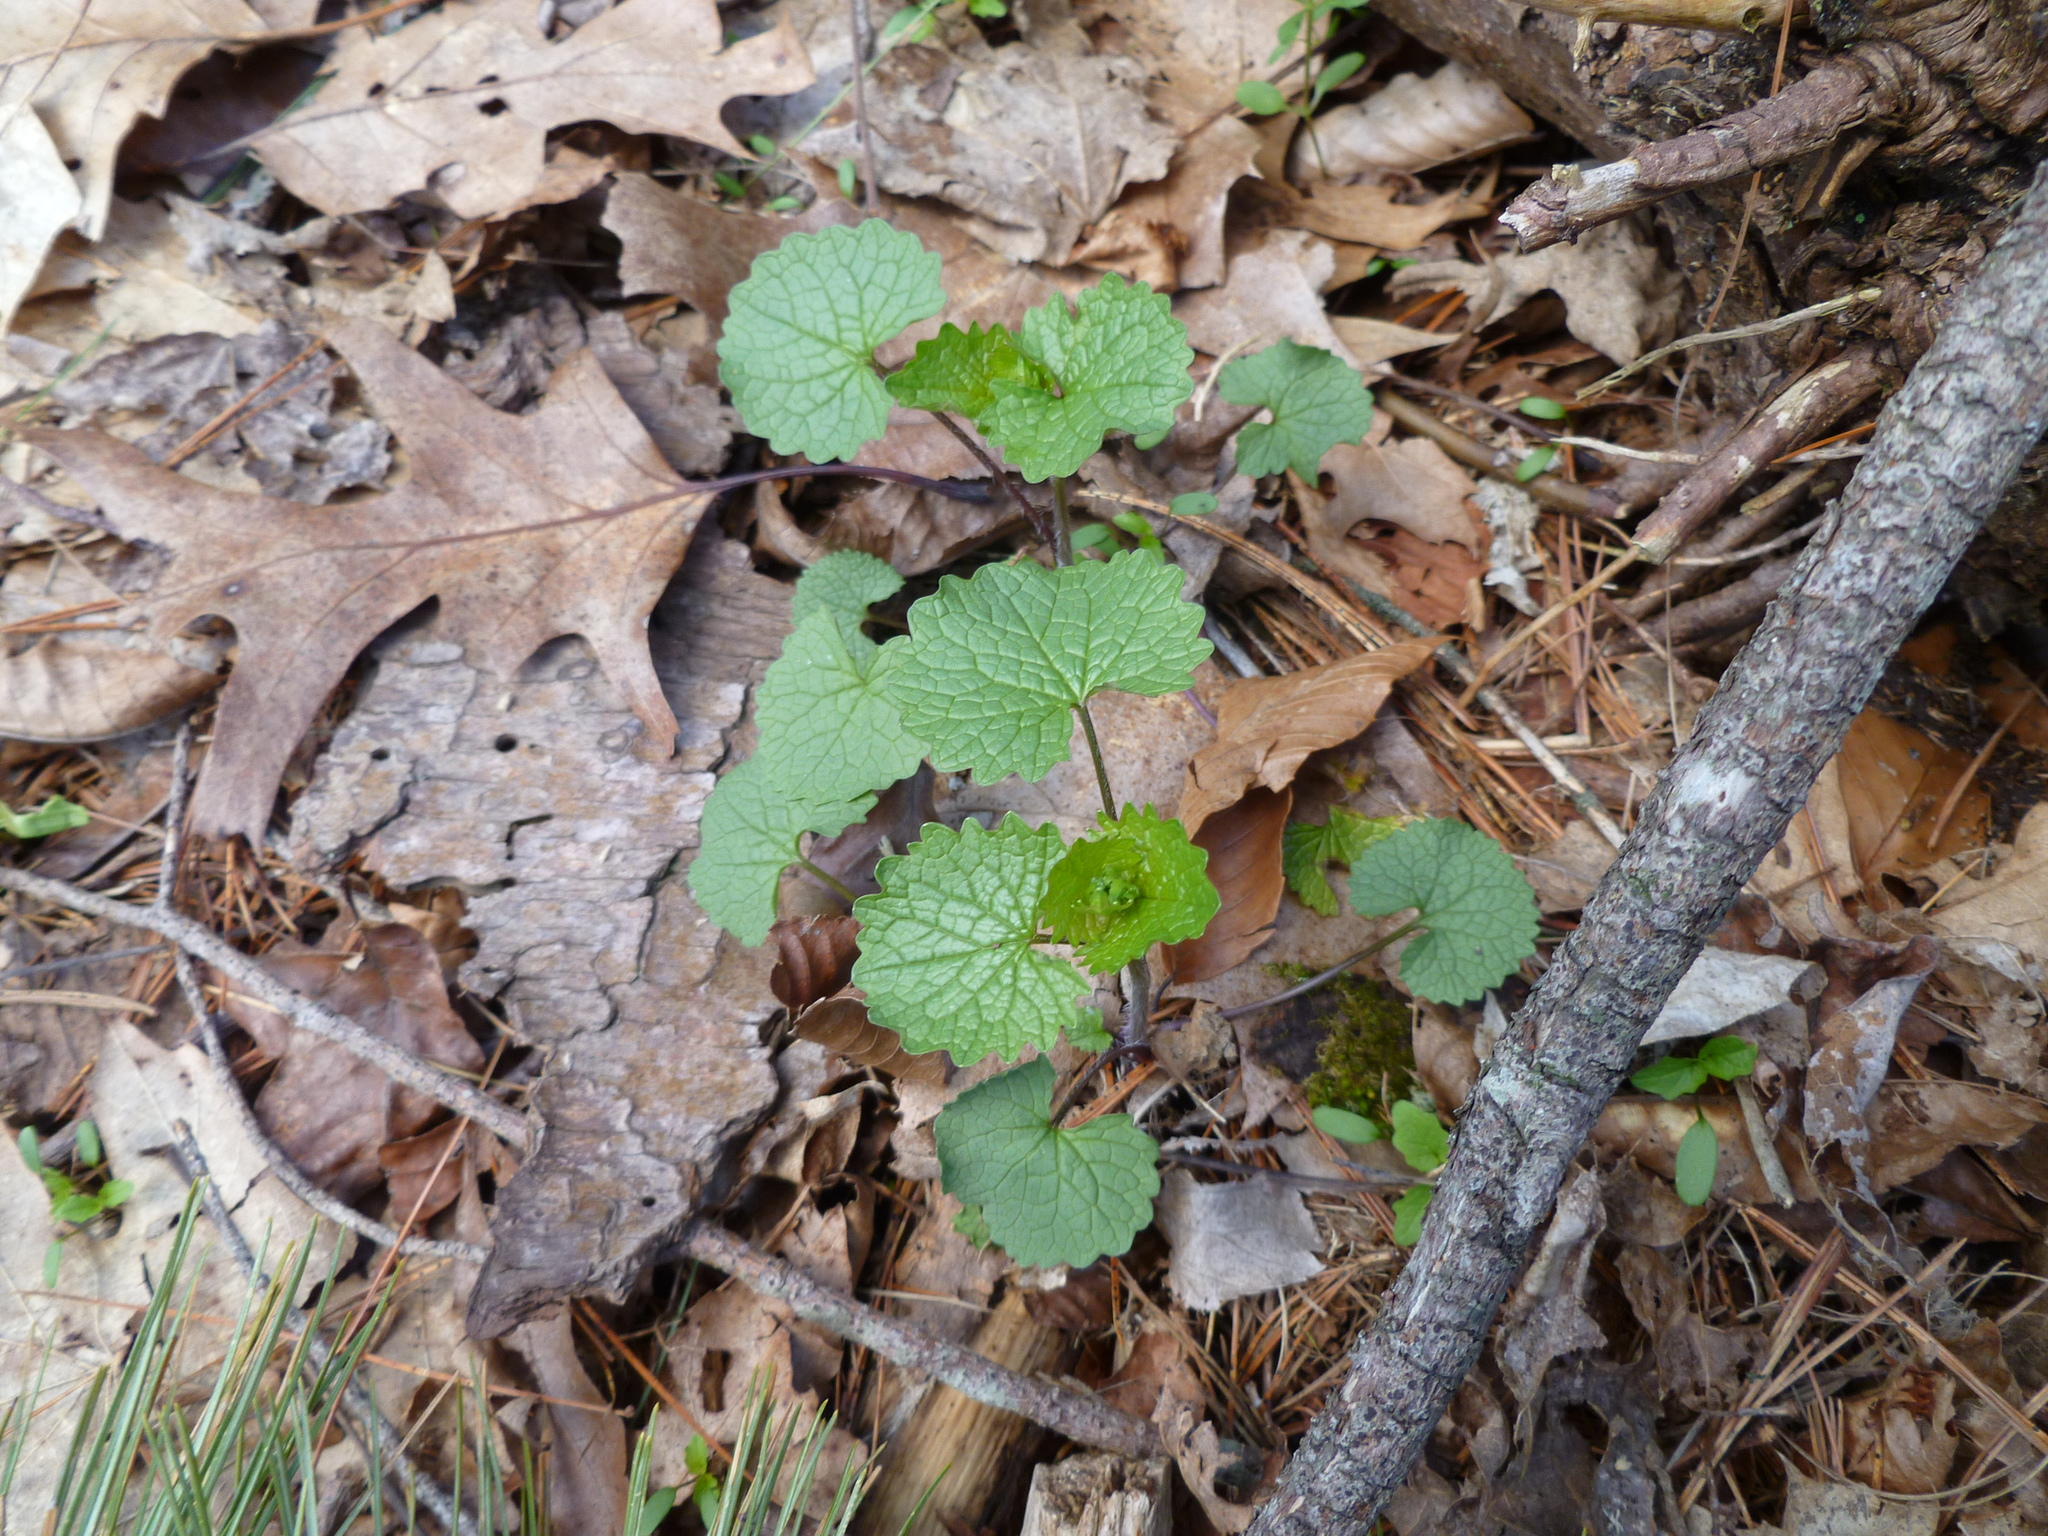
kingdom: Plantae
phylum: Tracheophyta
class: Magnoliopsida
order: Brassicales
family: Brassicaceae
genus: Alliaria
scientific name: Alliaria petiolata
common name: Garlic mustard
